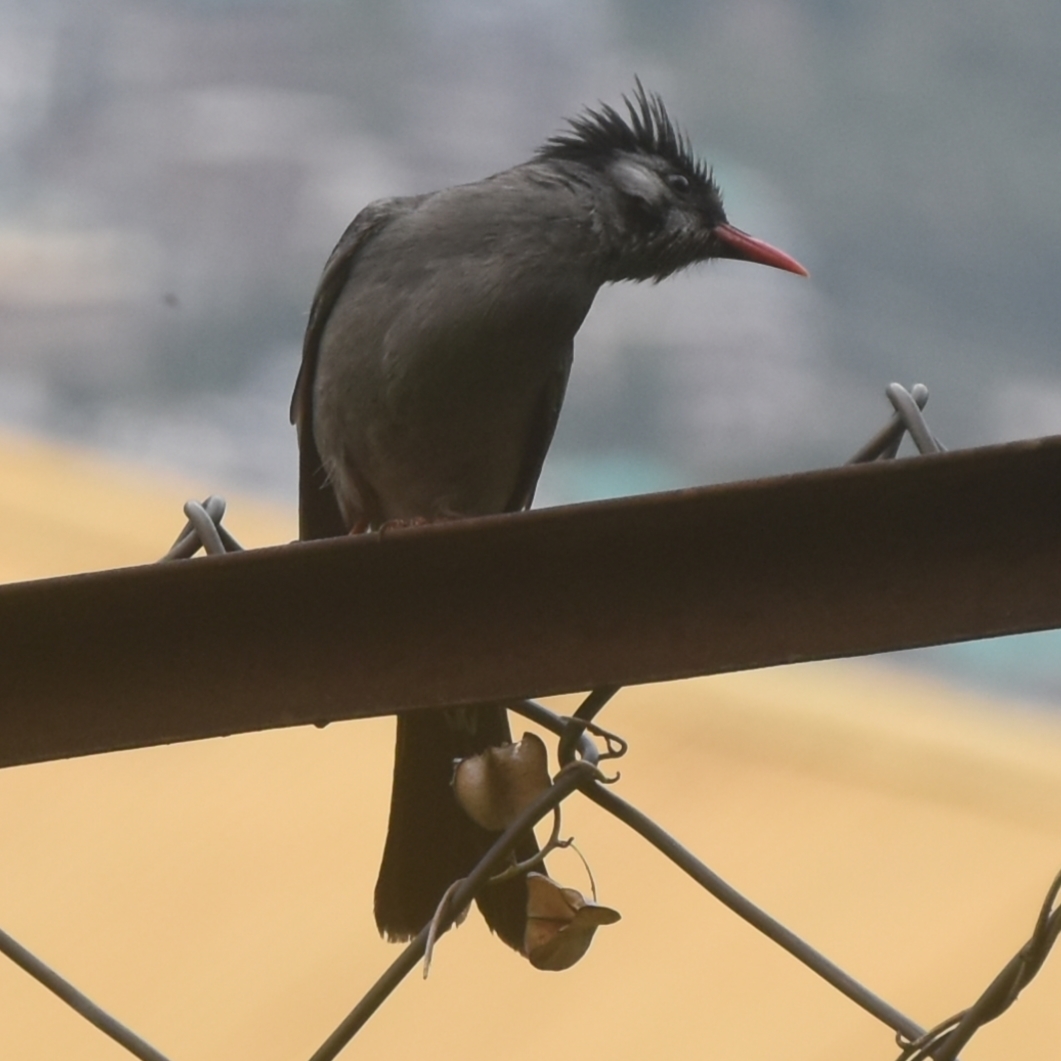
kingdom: Animalia
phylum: Chordata
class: Aves
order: Passeriformes
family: Pycnonotidae
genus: Hypsipetes
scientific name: Hypsipetes leucocephalus
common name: Black bulbul
